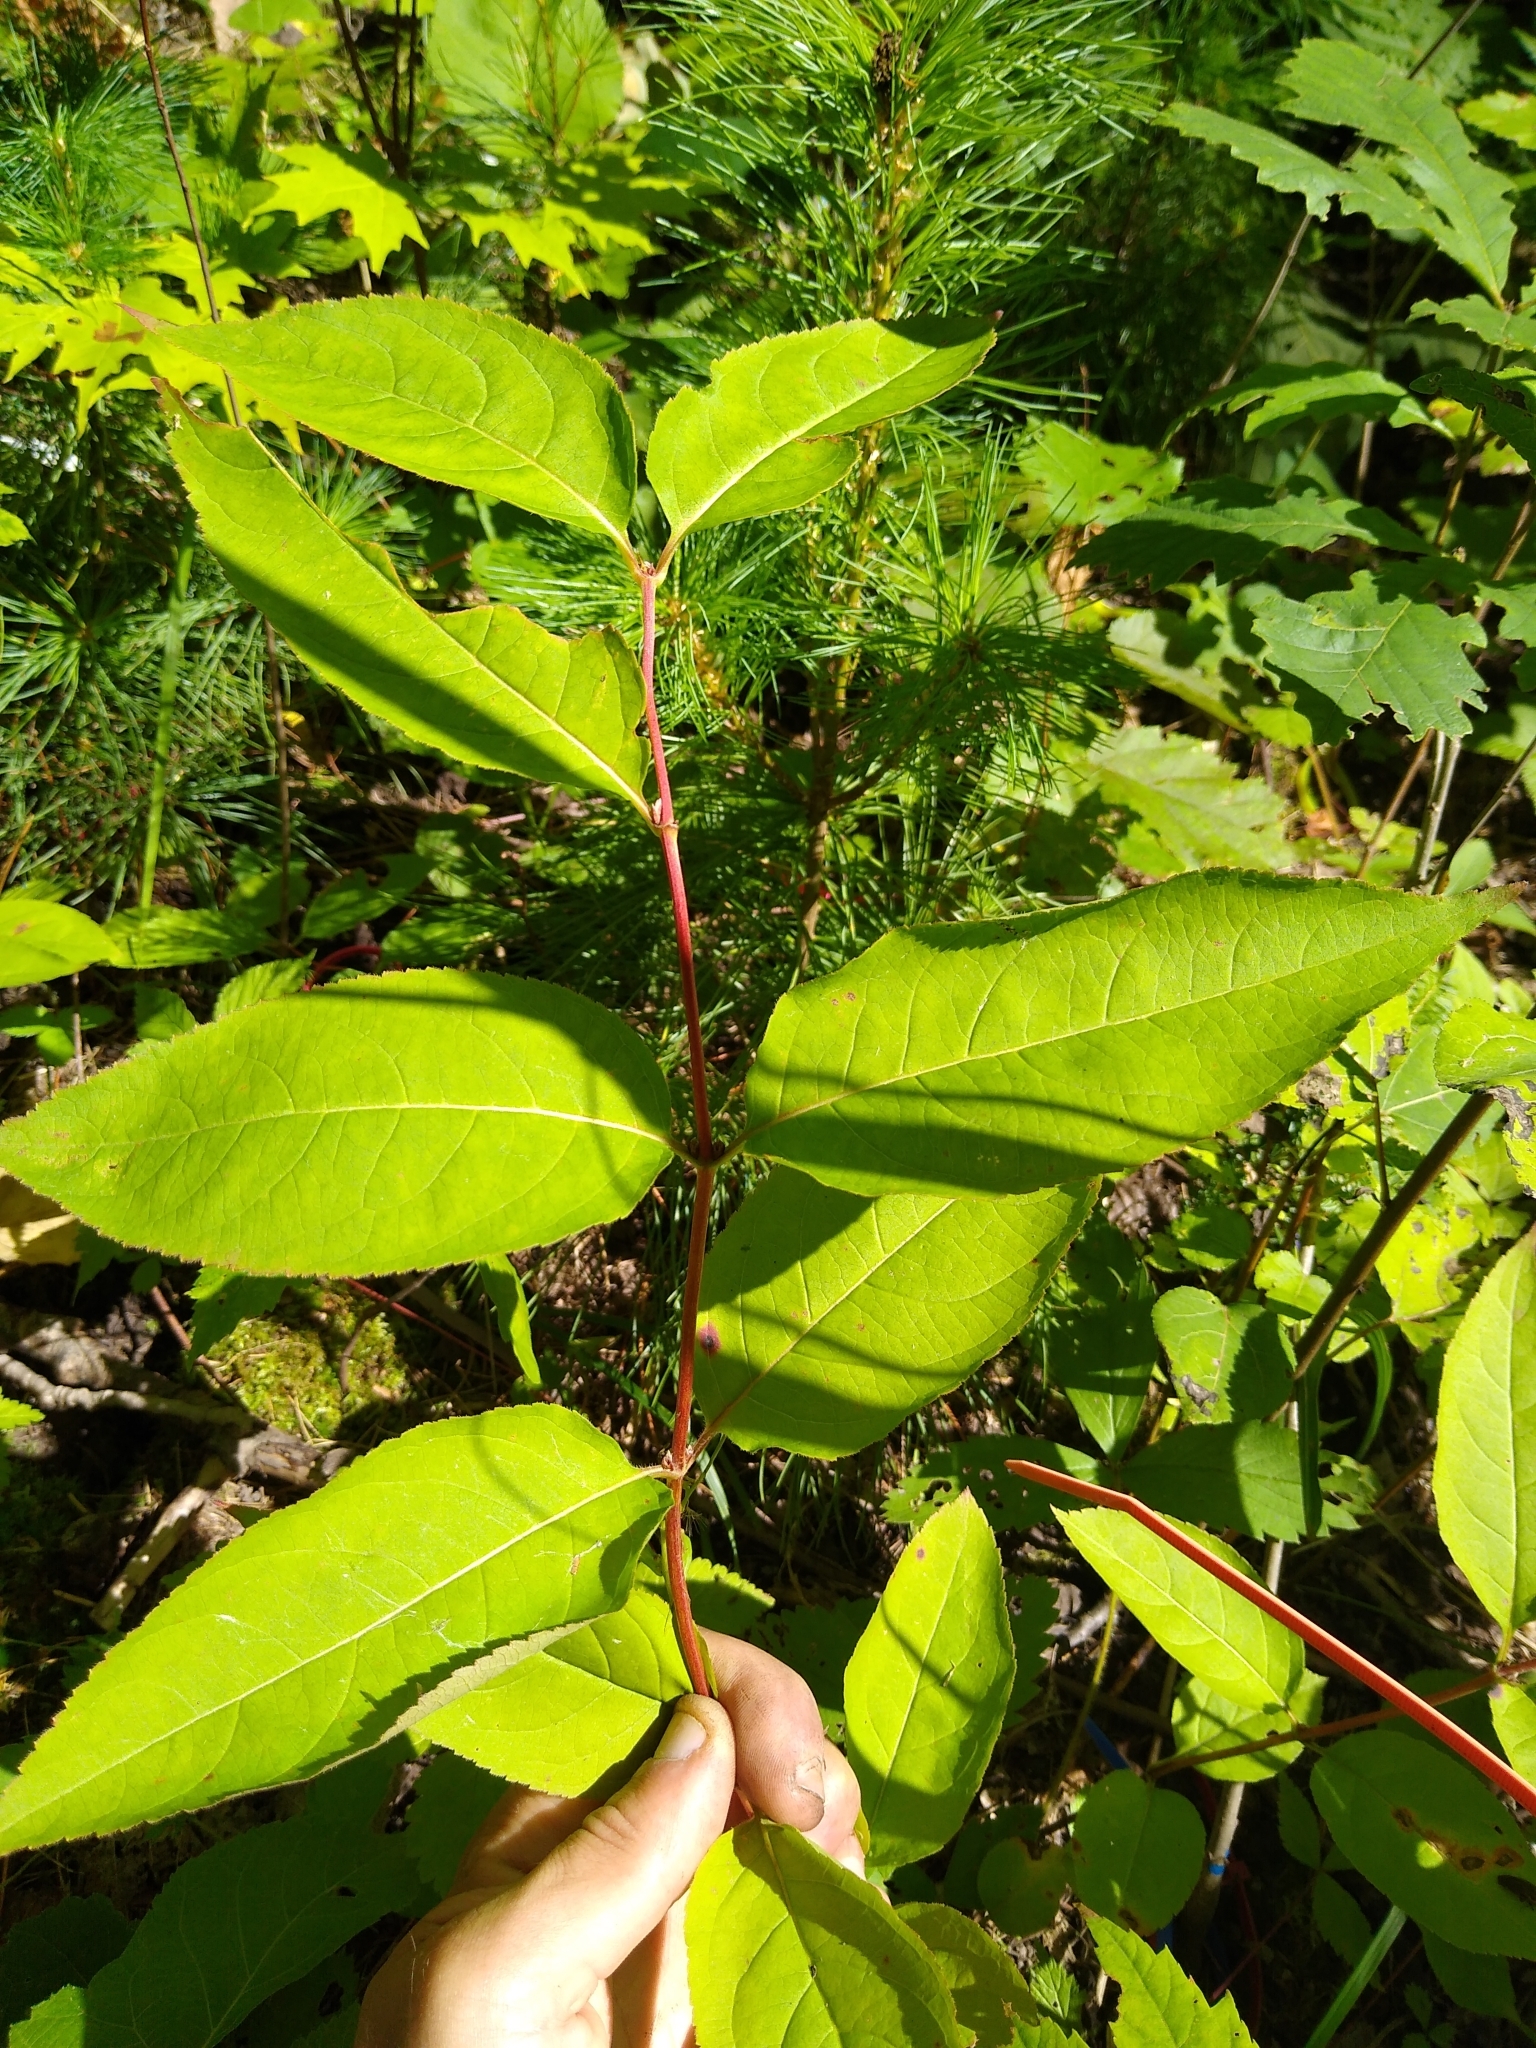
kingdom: Plantae
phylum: Tracheophyta
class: Magnoliopsida
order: Dipsacales
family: Caprifoliaceae
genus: Diervilla
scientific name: Diervilla lonicera
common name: Bush-honeysuckle
